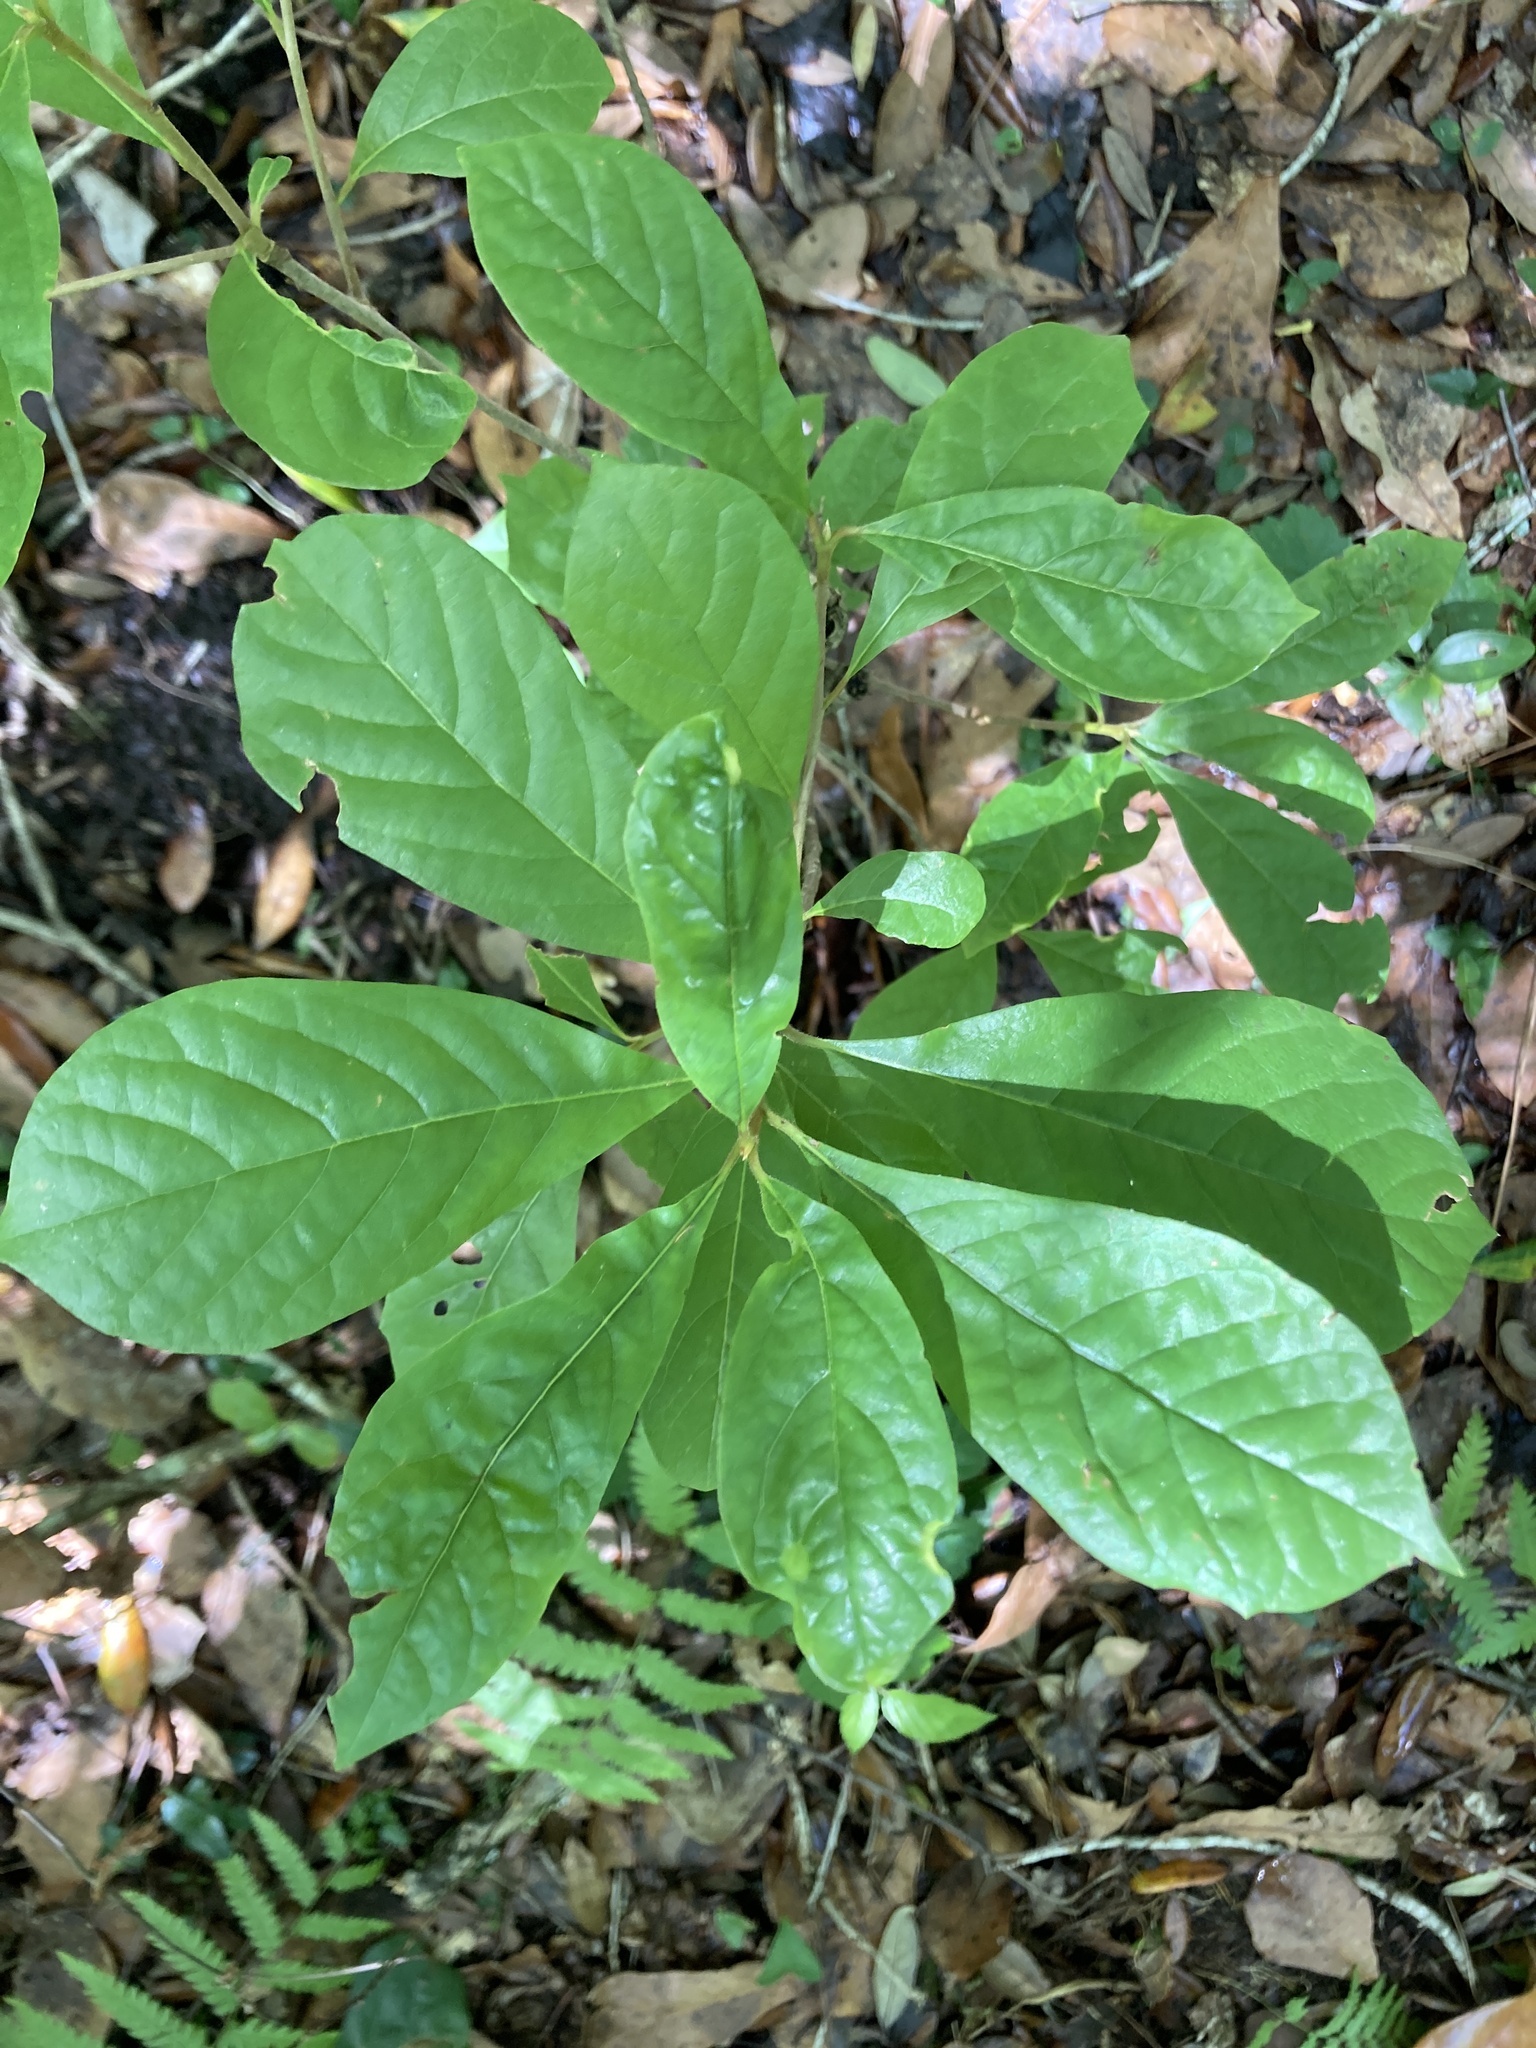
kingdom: Plantae
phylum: Tracheophyta
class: Magnoliopsida
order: Cornales
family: Nyssaceae
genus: Nyssa
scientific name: Nyssa sylvatica
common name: Black tupelo
